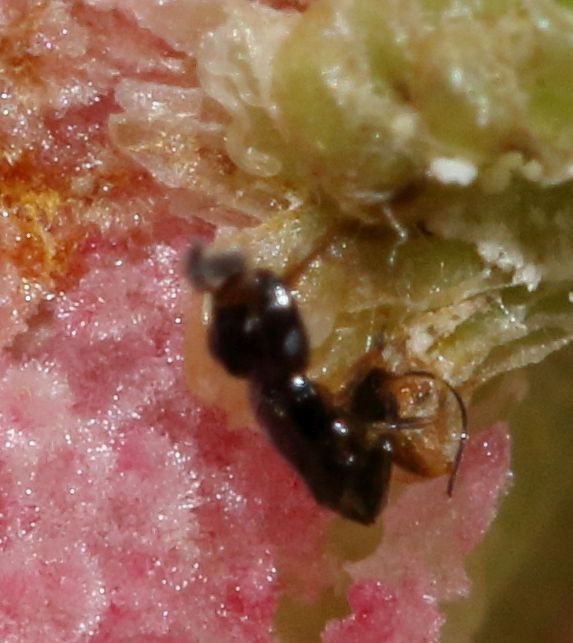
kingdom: Animalia
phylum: Arthropoda
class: Insecta
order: Hymenoptera
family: Agaonidae
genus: Elisabethiella
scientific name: Elisabethiella comptoni
